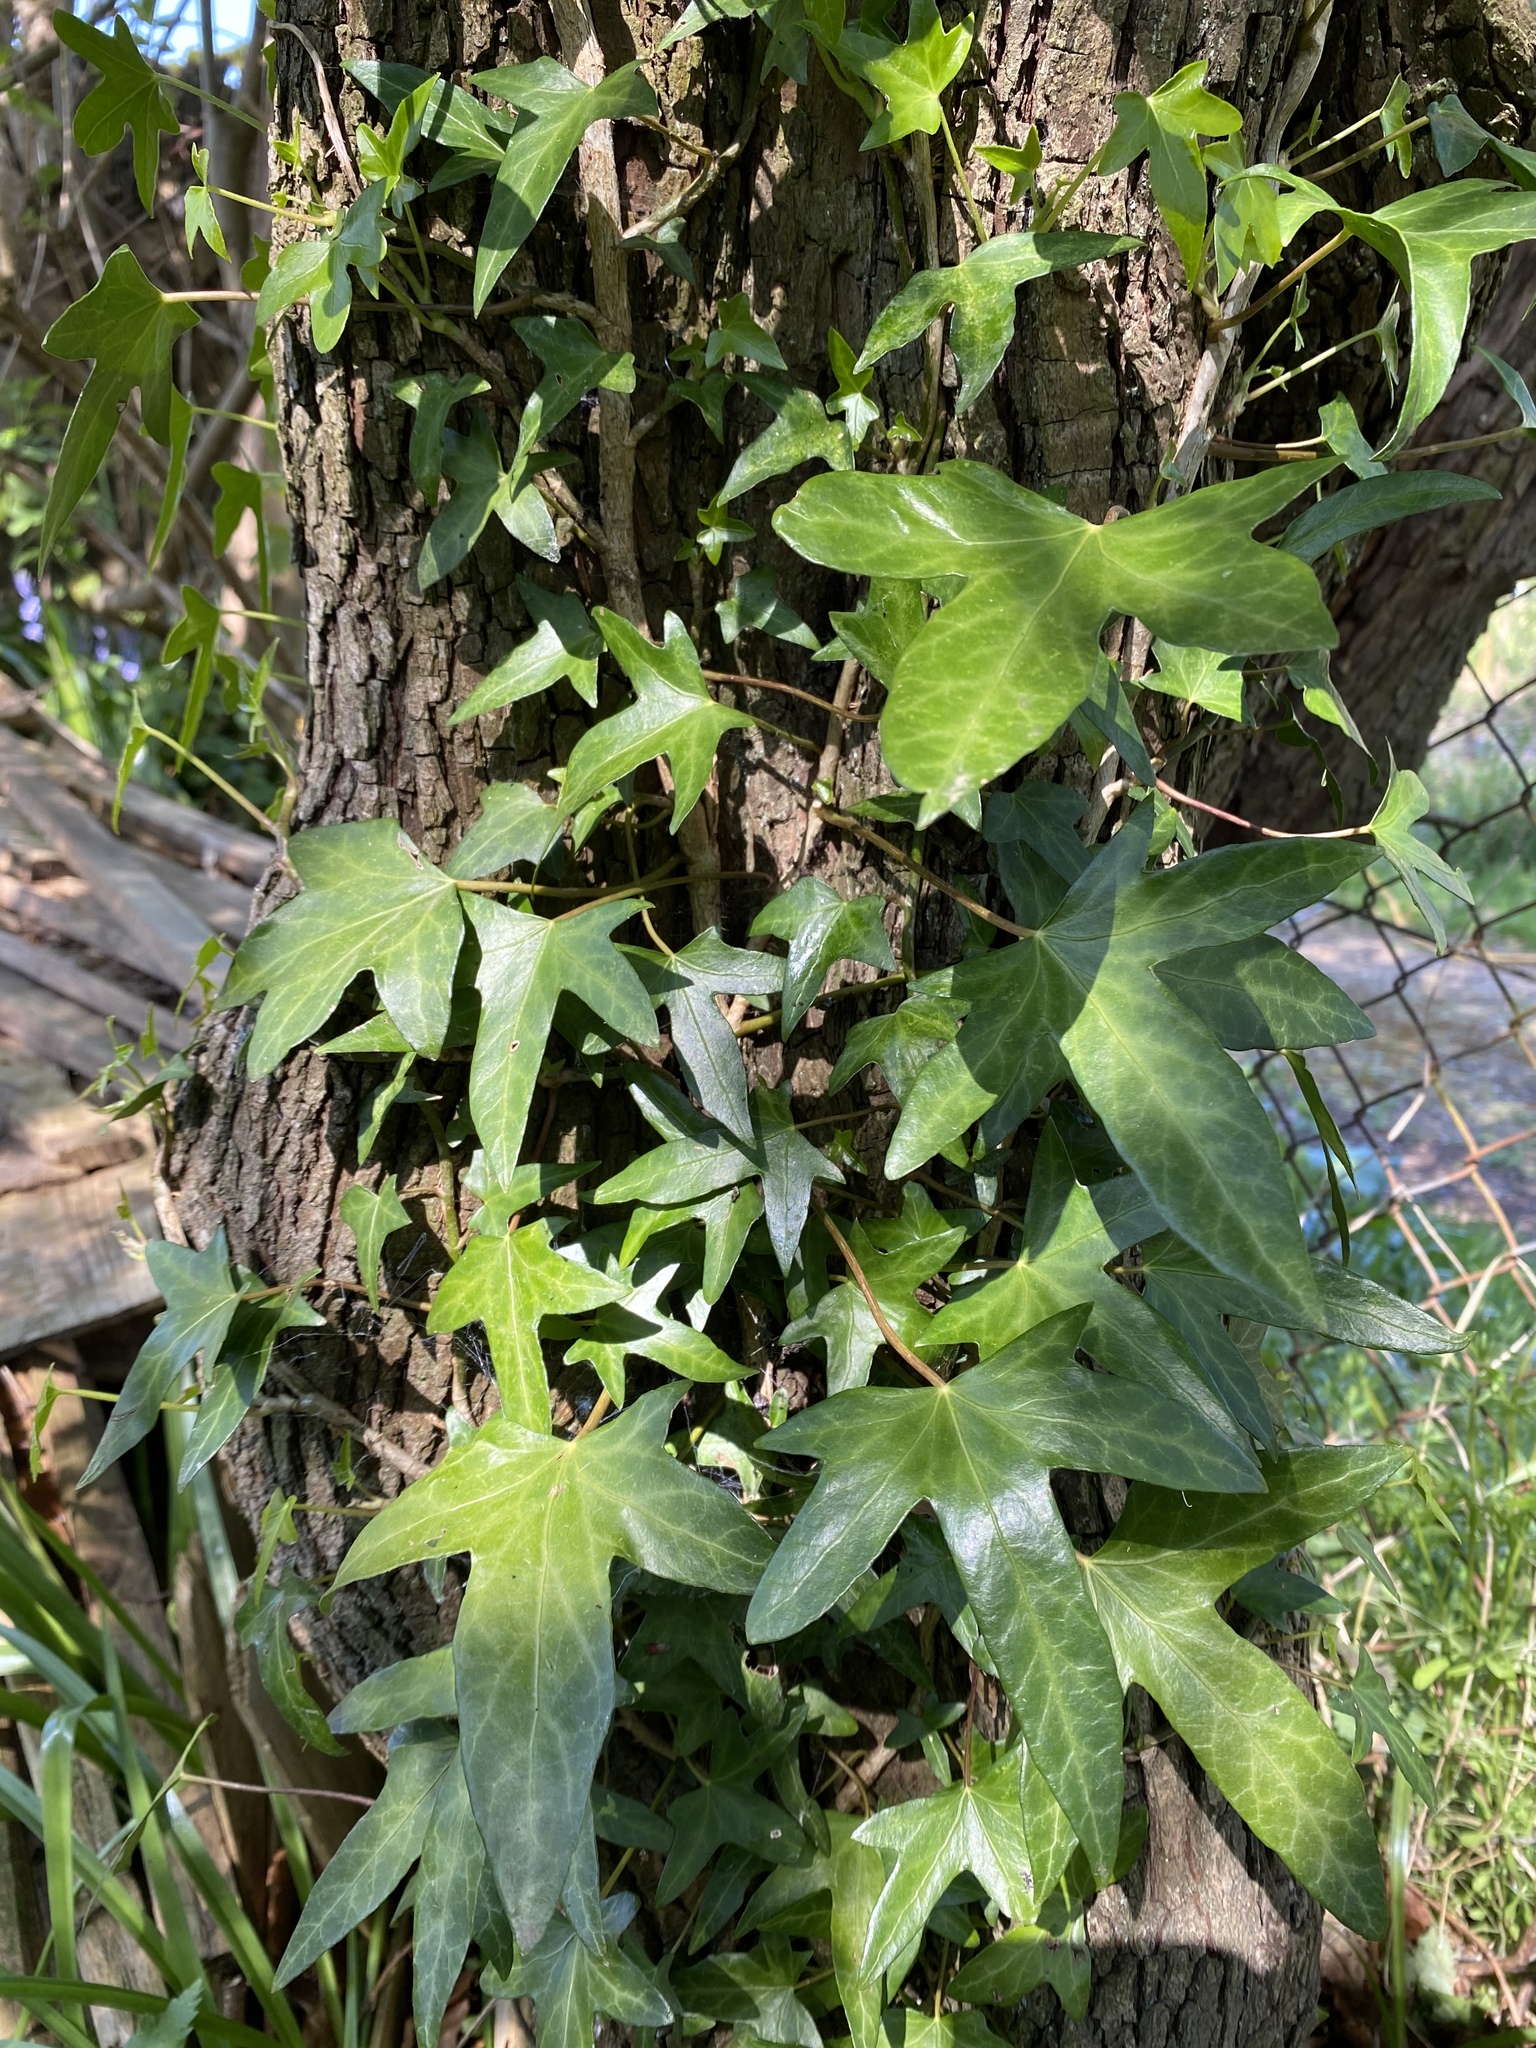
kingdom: Plantae
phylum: Tracheophyta
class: Magnoliopsida
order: Apiales
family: Araliaceae
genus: Hedera
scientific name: Hedera helix
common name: Ivy
